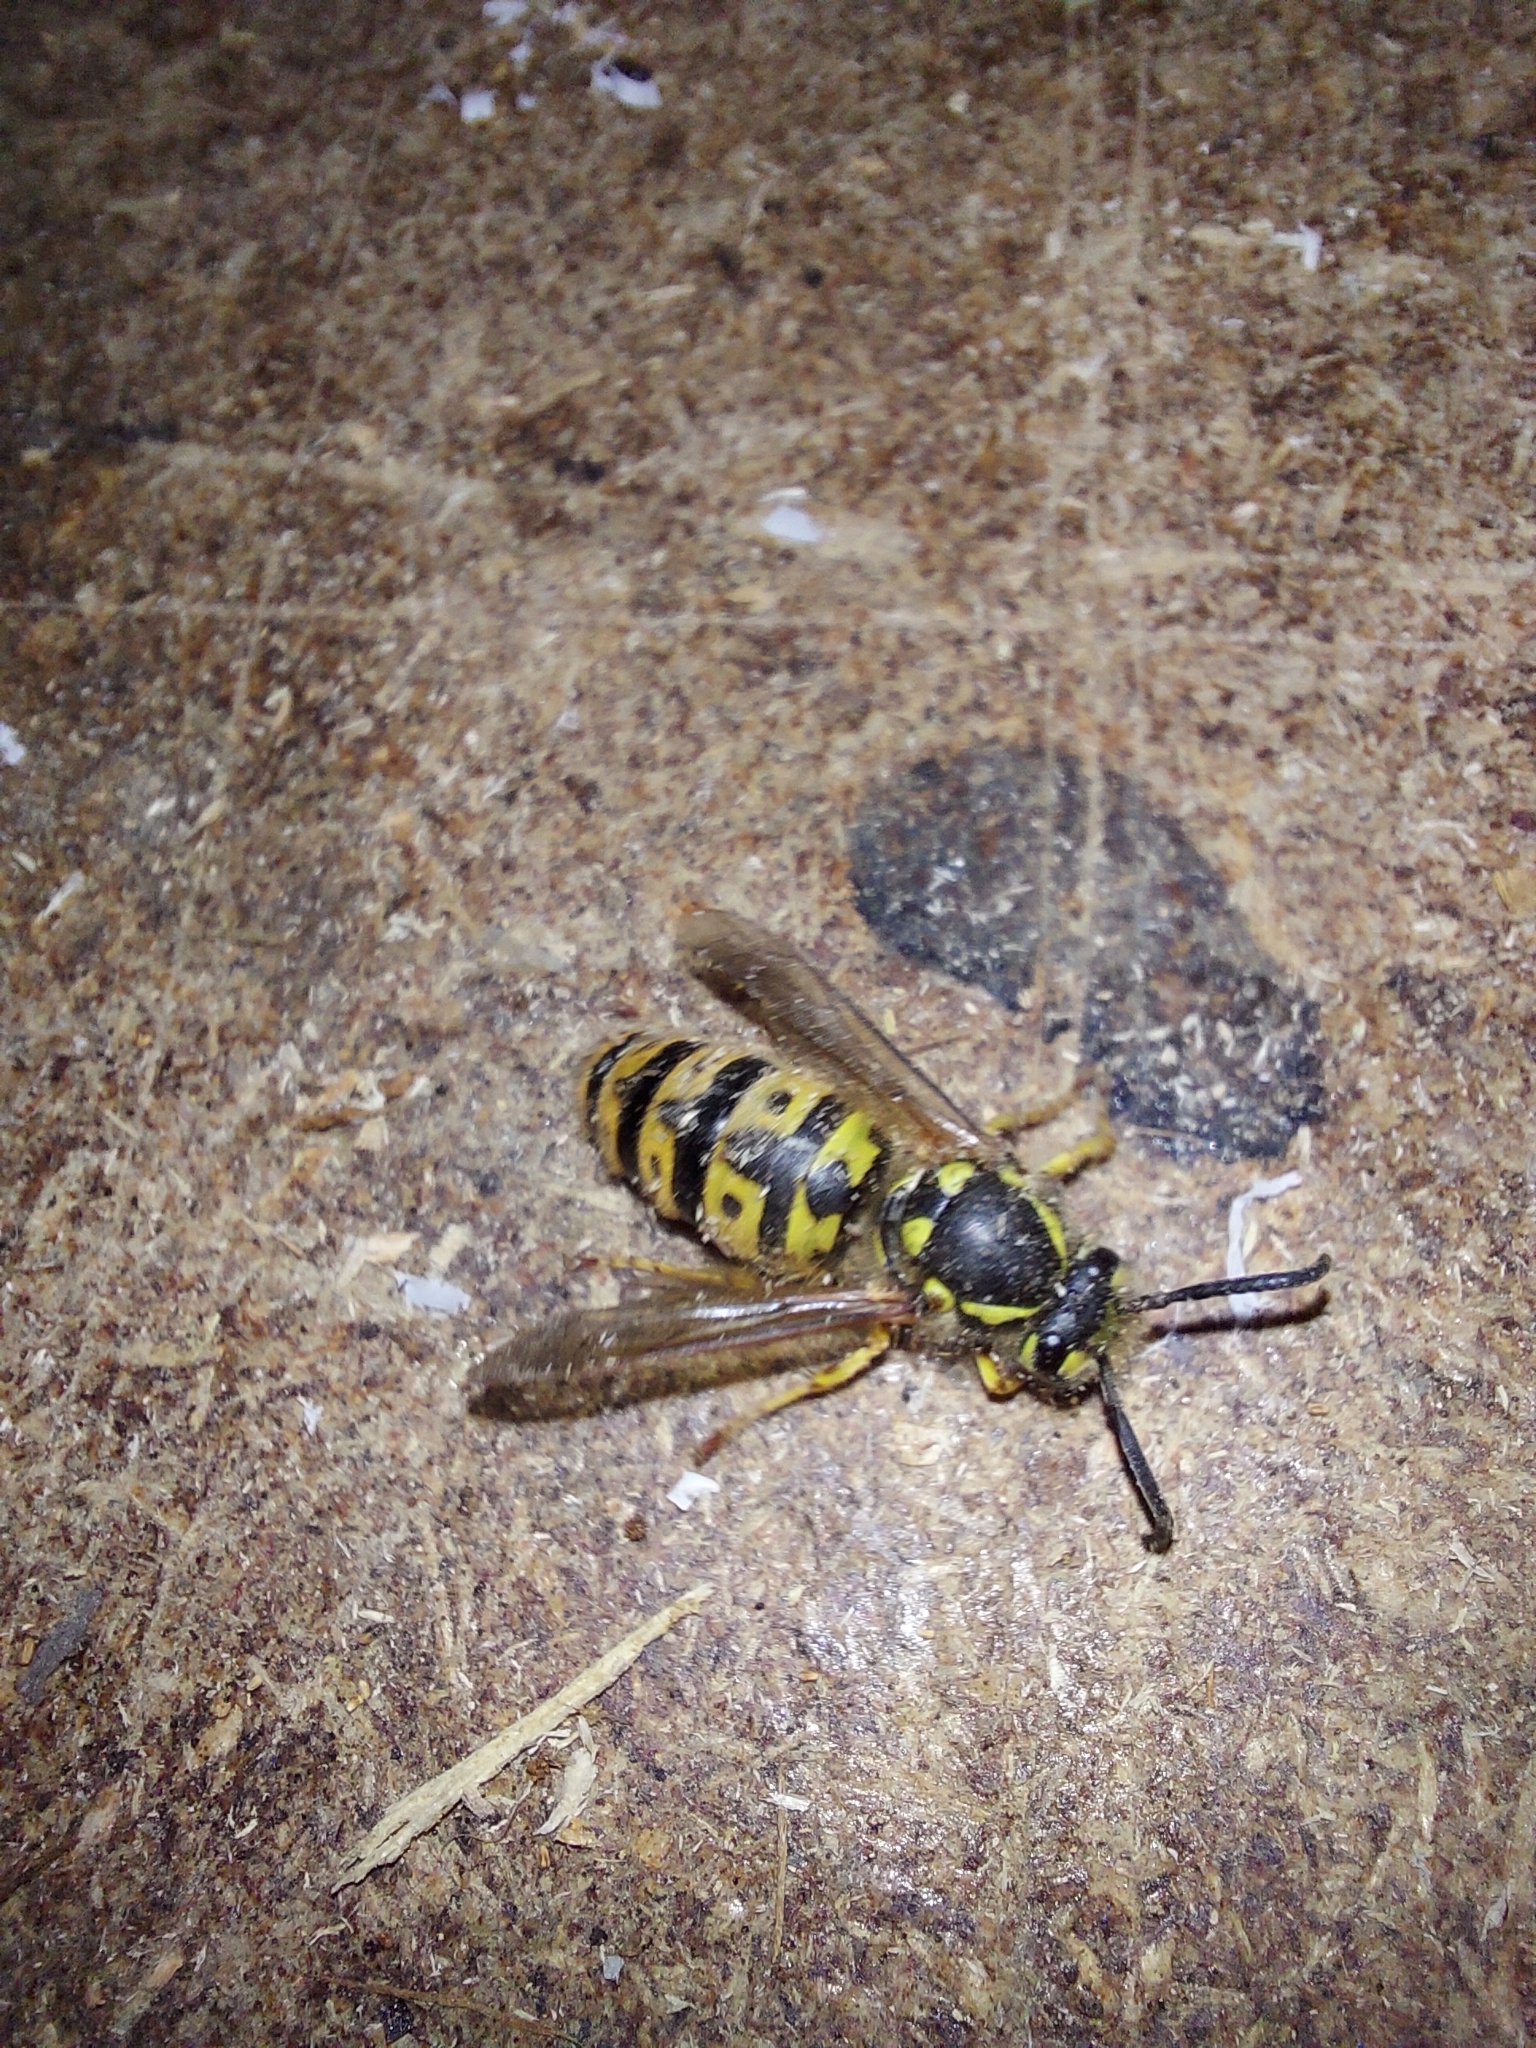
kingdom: Animalia
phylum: Arthropoda
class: Insecta
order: Hymenoptera
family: Vespidae
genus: Vespula
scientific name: Vespula germanica
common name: German wasp
